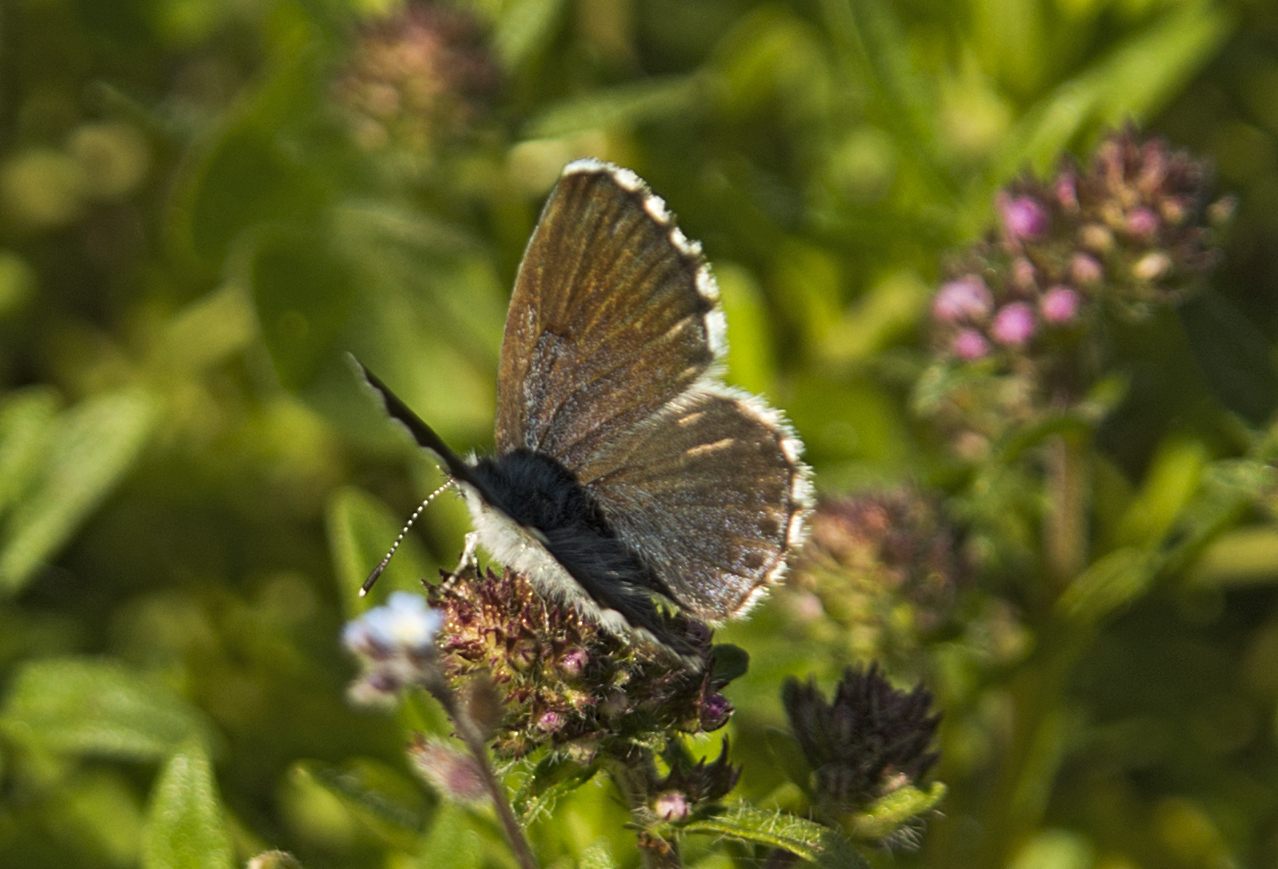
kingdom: Animalia
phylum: Arthropoda
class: Insecta
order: Lepidoptera
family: Lycaenidae
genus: Pseudophilotes
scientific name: Pseudophilotes baton
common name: Baton blue
